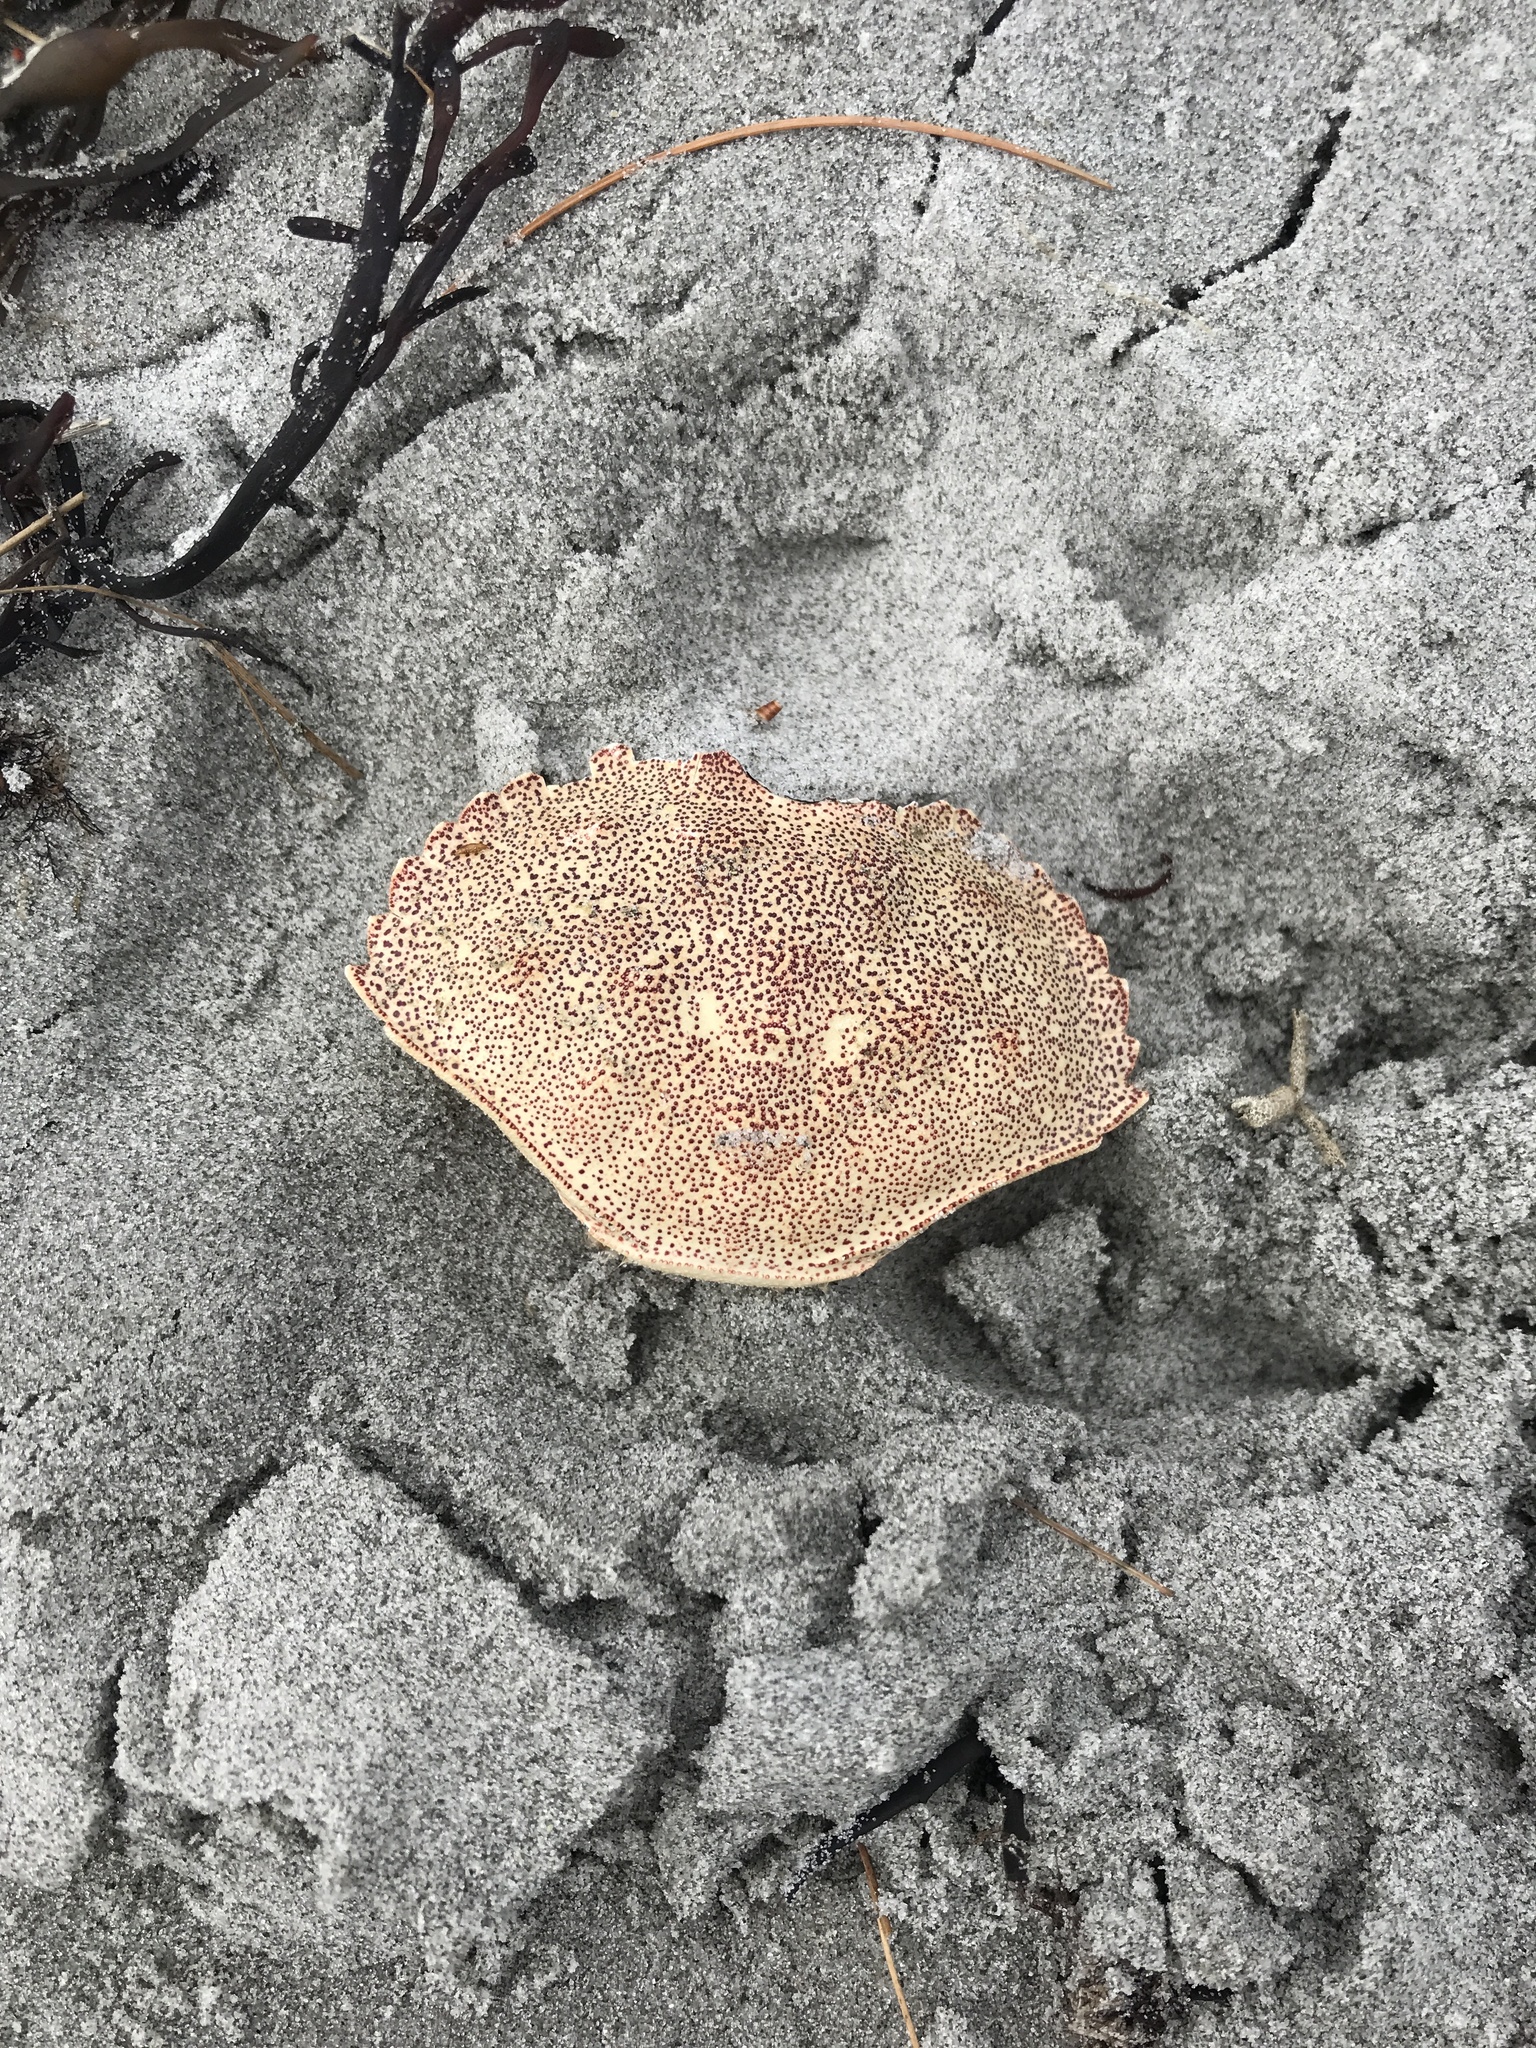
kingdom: Animalia
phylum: Arthropoda
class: Malacostraca
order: Decapoda
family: Cancridae
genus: Cancer
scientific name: Cancer irroratus
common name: Atlantic rock crab
